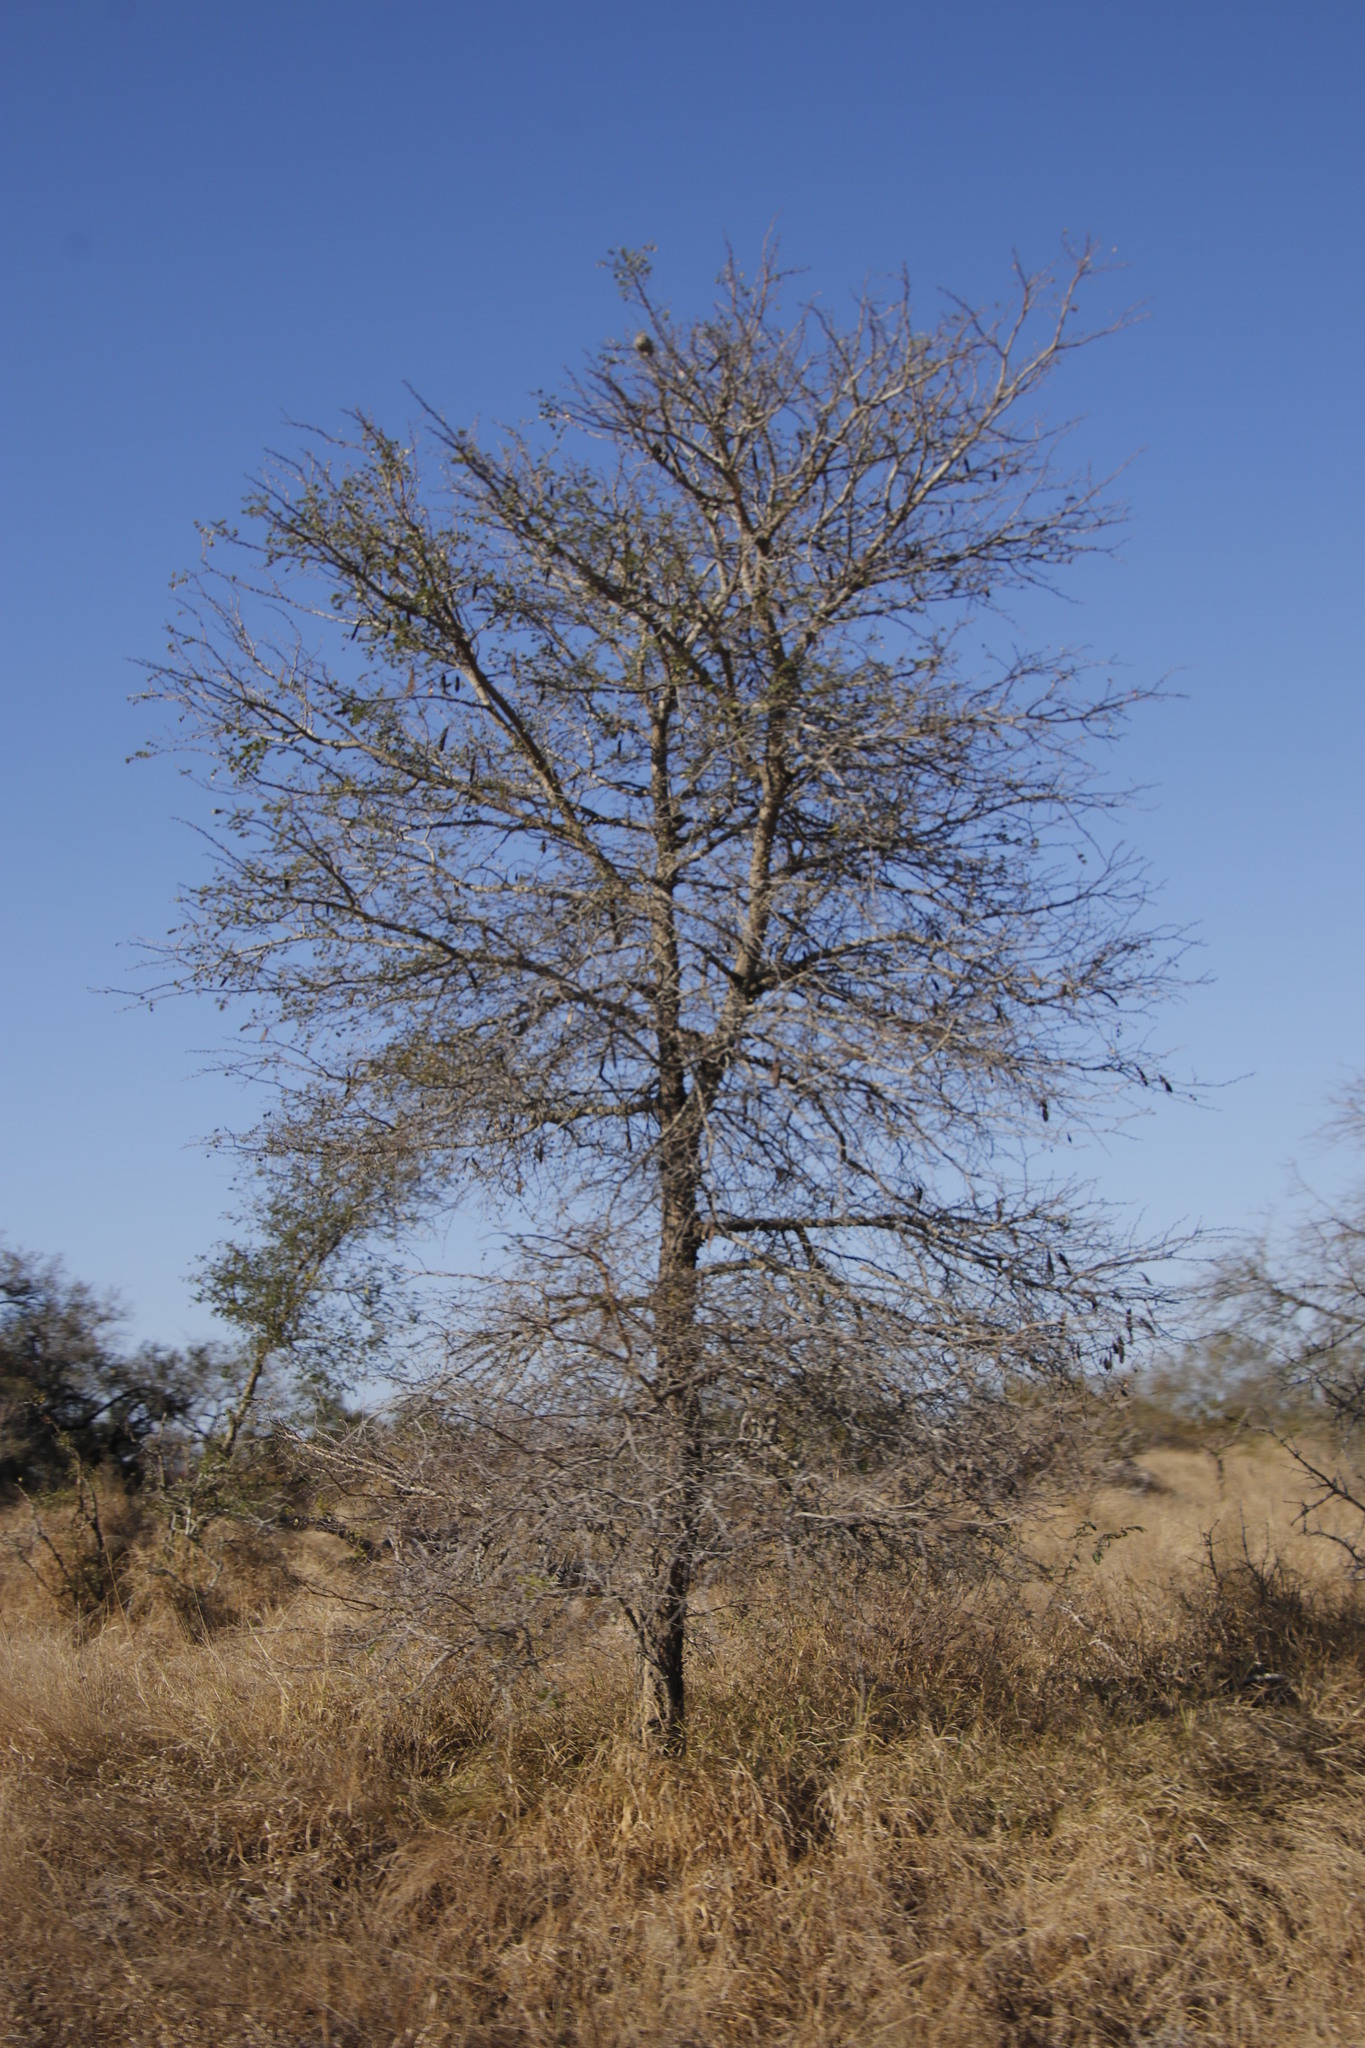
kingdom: Plantae
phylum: Tracheophyta
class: Magnoliopsida
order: Fabales
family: Fabaceae
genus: Senegalia
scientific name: Senegalia nigrescens
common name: Knobthorn
